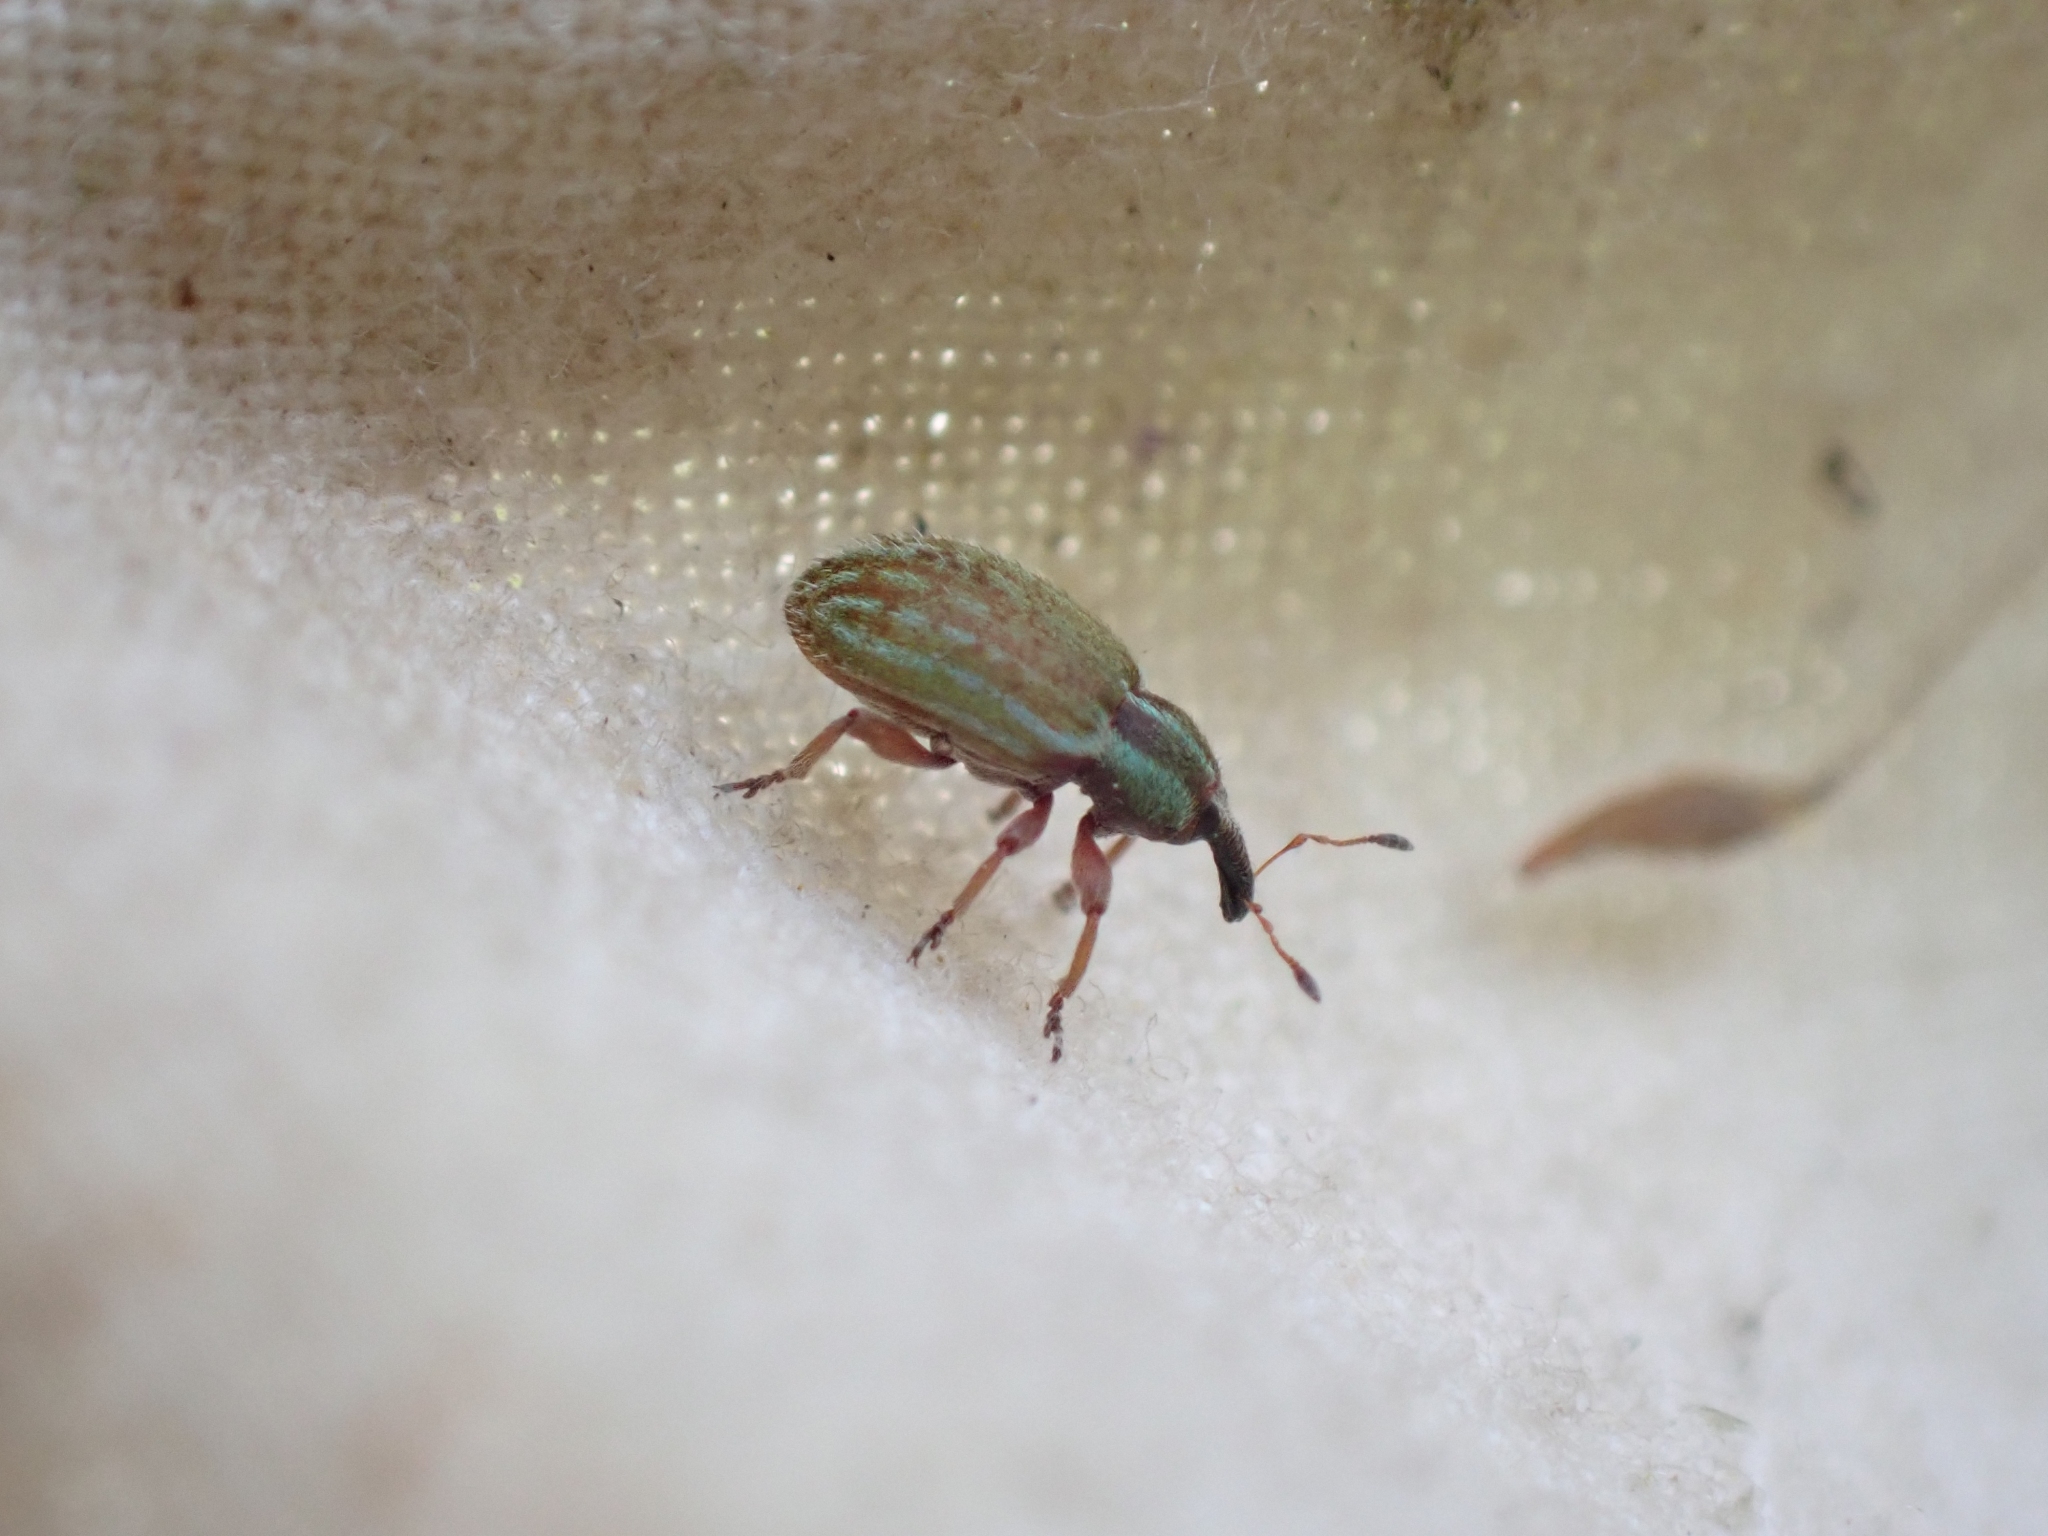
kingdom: Animalia
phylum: Arthropoda
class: Insecta
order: Coleoptera
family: Curculionidae
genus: Hypera
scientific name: Hypera nigrirostris
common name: Black-beaked green weevil
